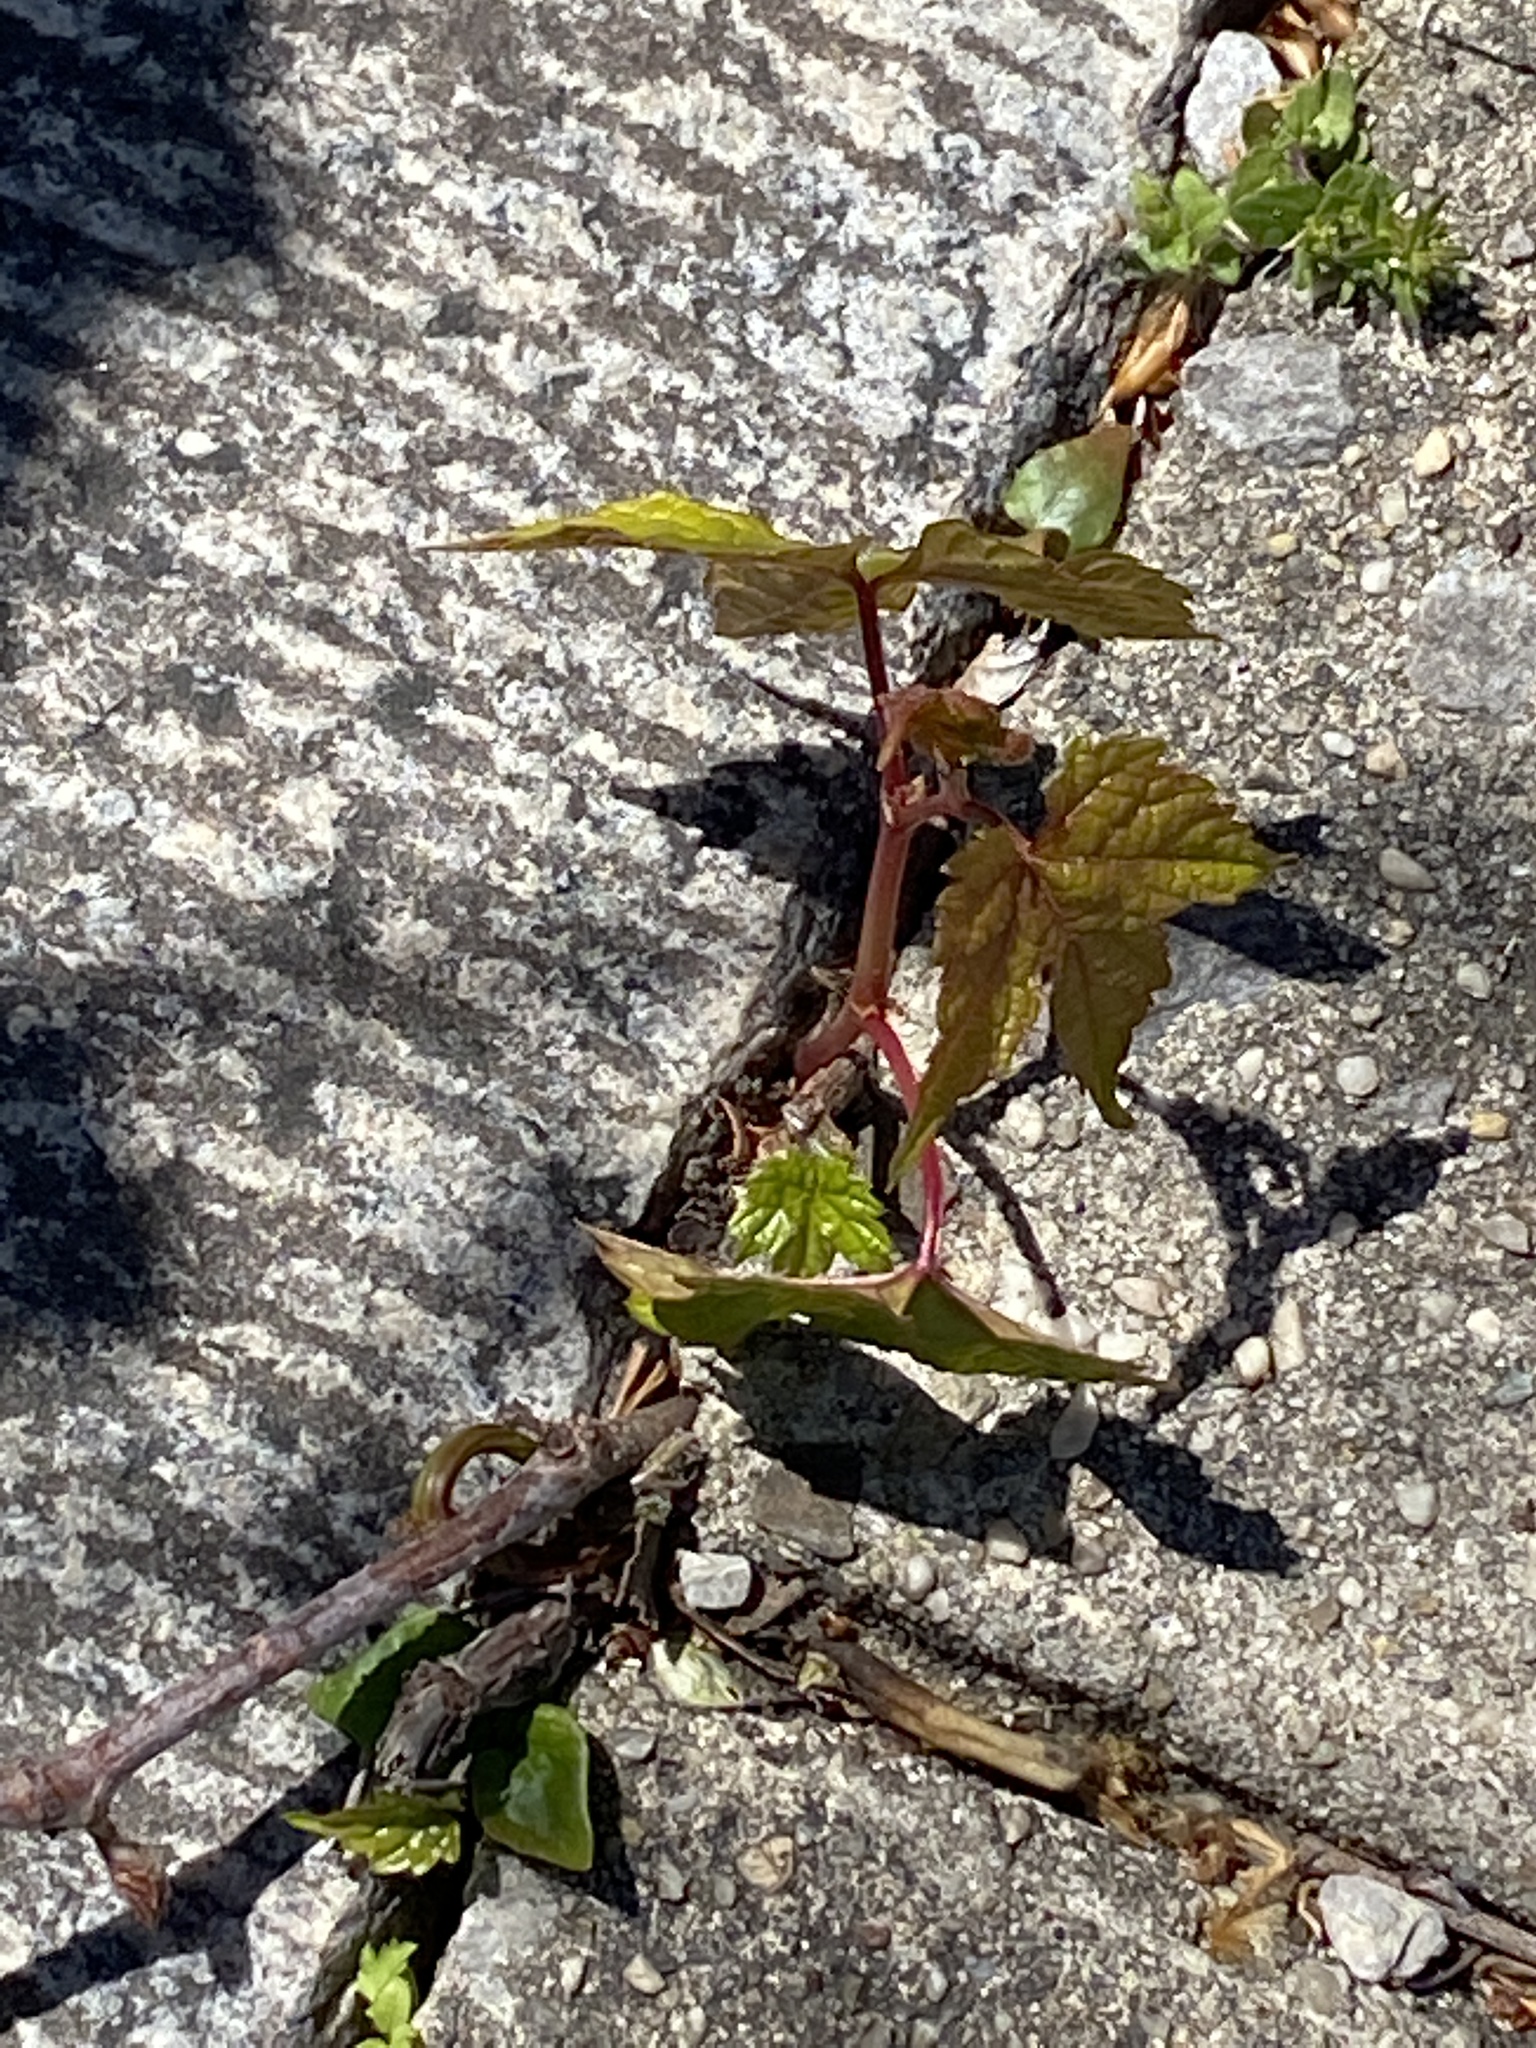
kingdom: Plantae
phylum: Tracheophyta
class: Magnoliopsida
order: Vitales
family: Vitaceae
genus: Ampelopsis
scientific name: Ampelopsis glandulosa
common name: Amur peppervine
